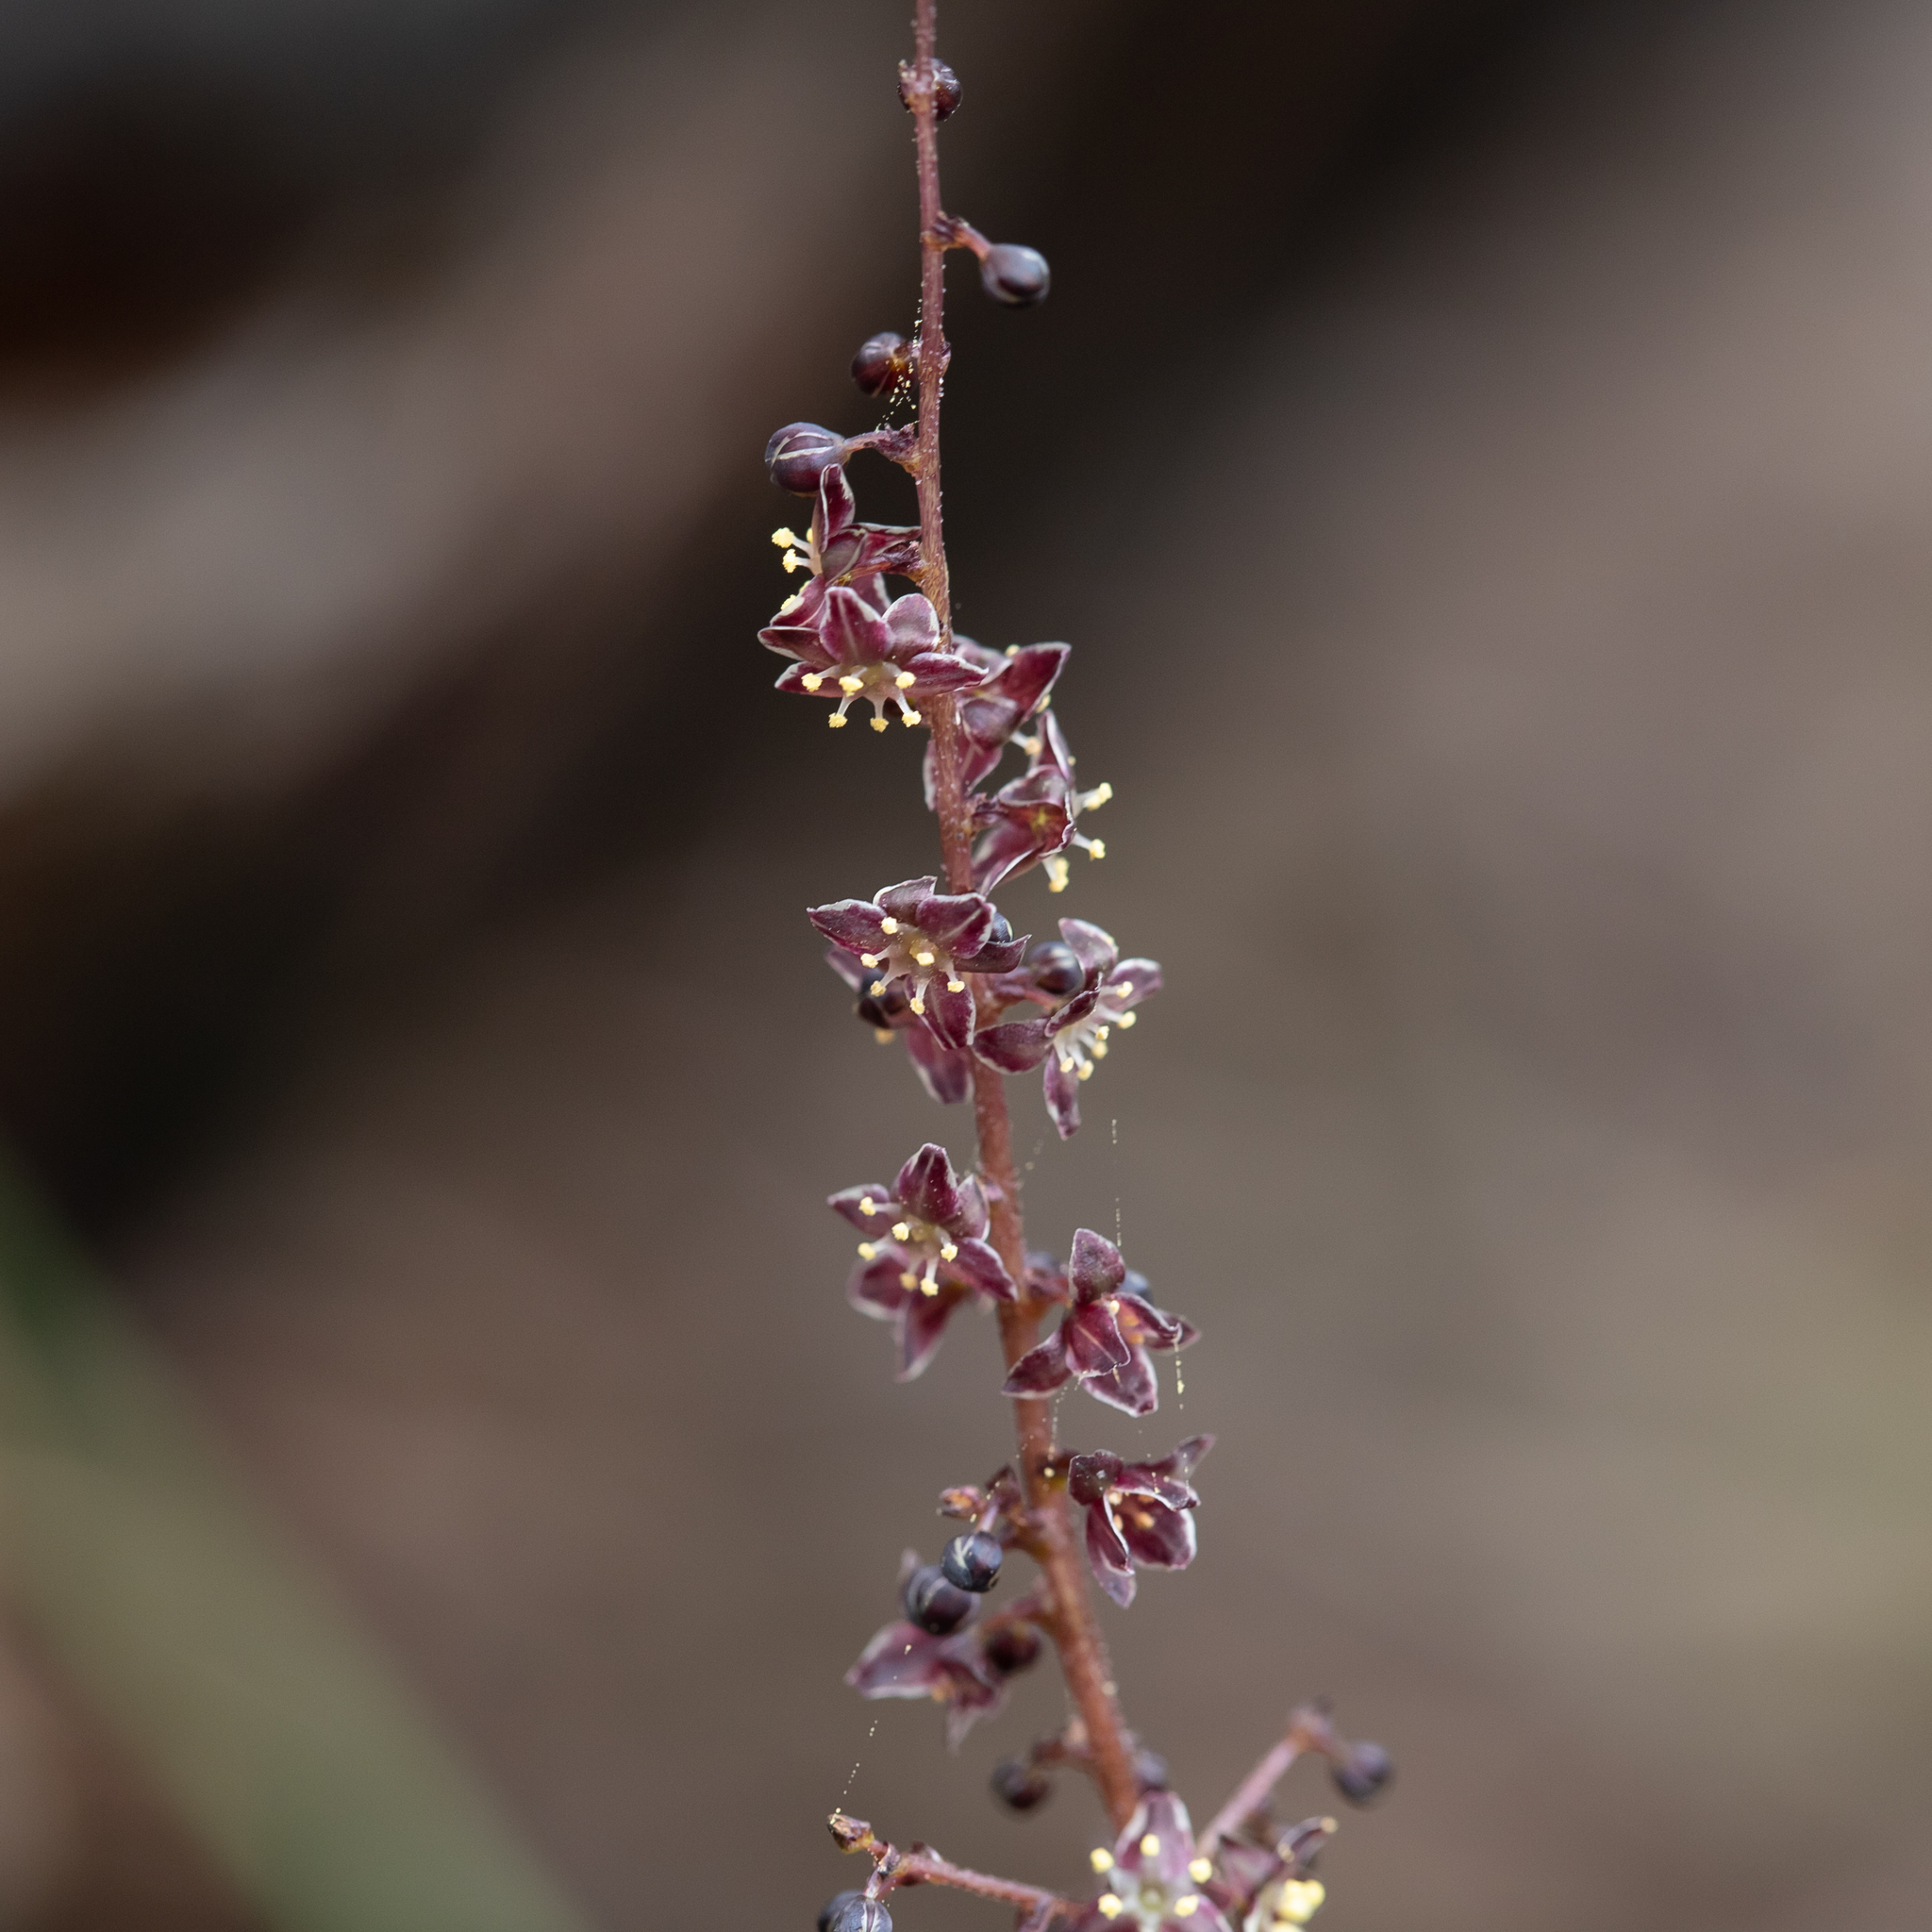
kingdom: Plantae
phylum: Tracheophyta
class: Liliopsida
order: Asparagales
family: Asparagaceae
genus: Lomandra
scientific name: Lomandra micrantha
